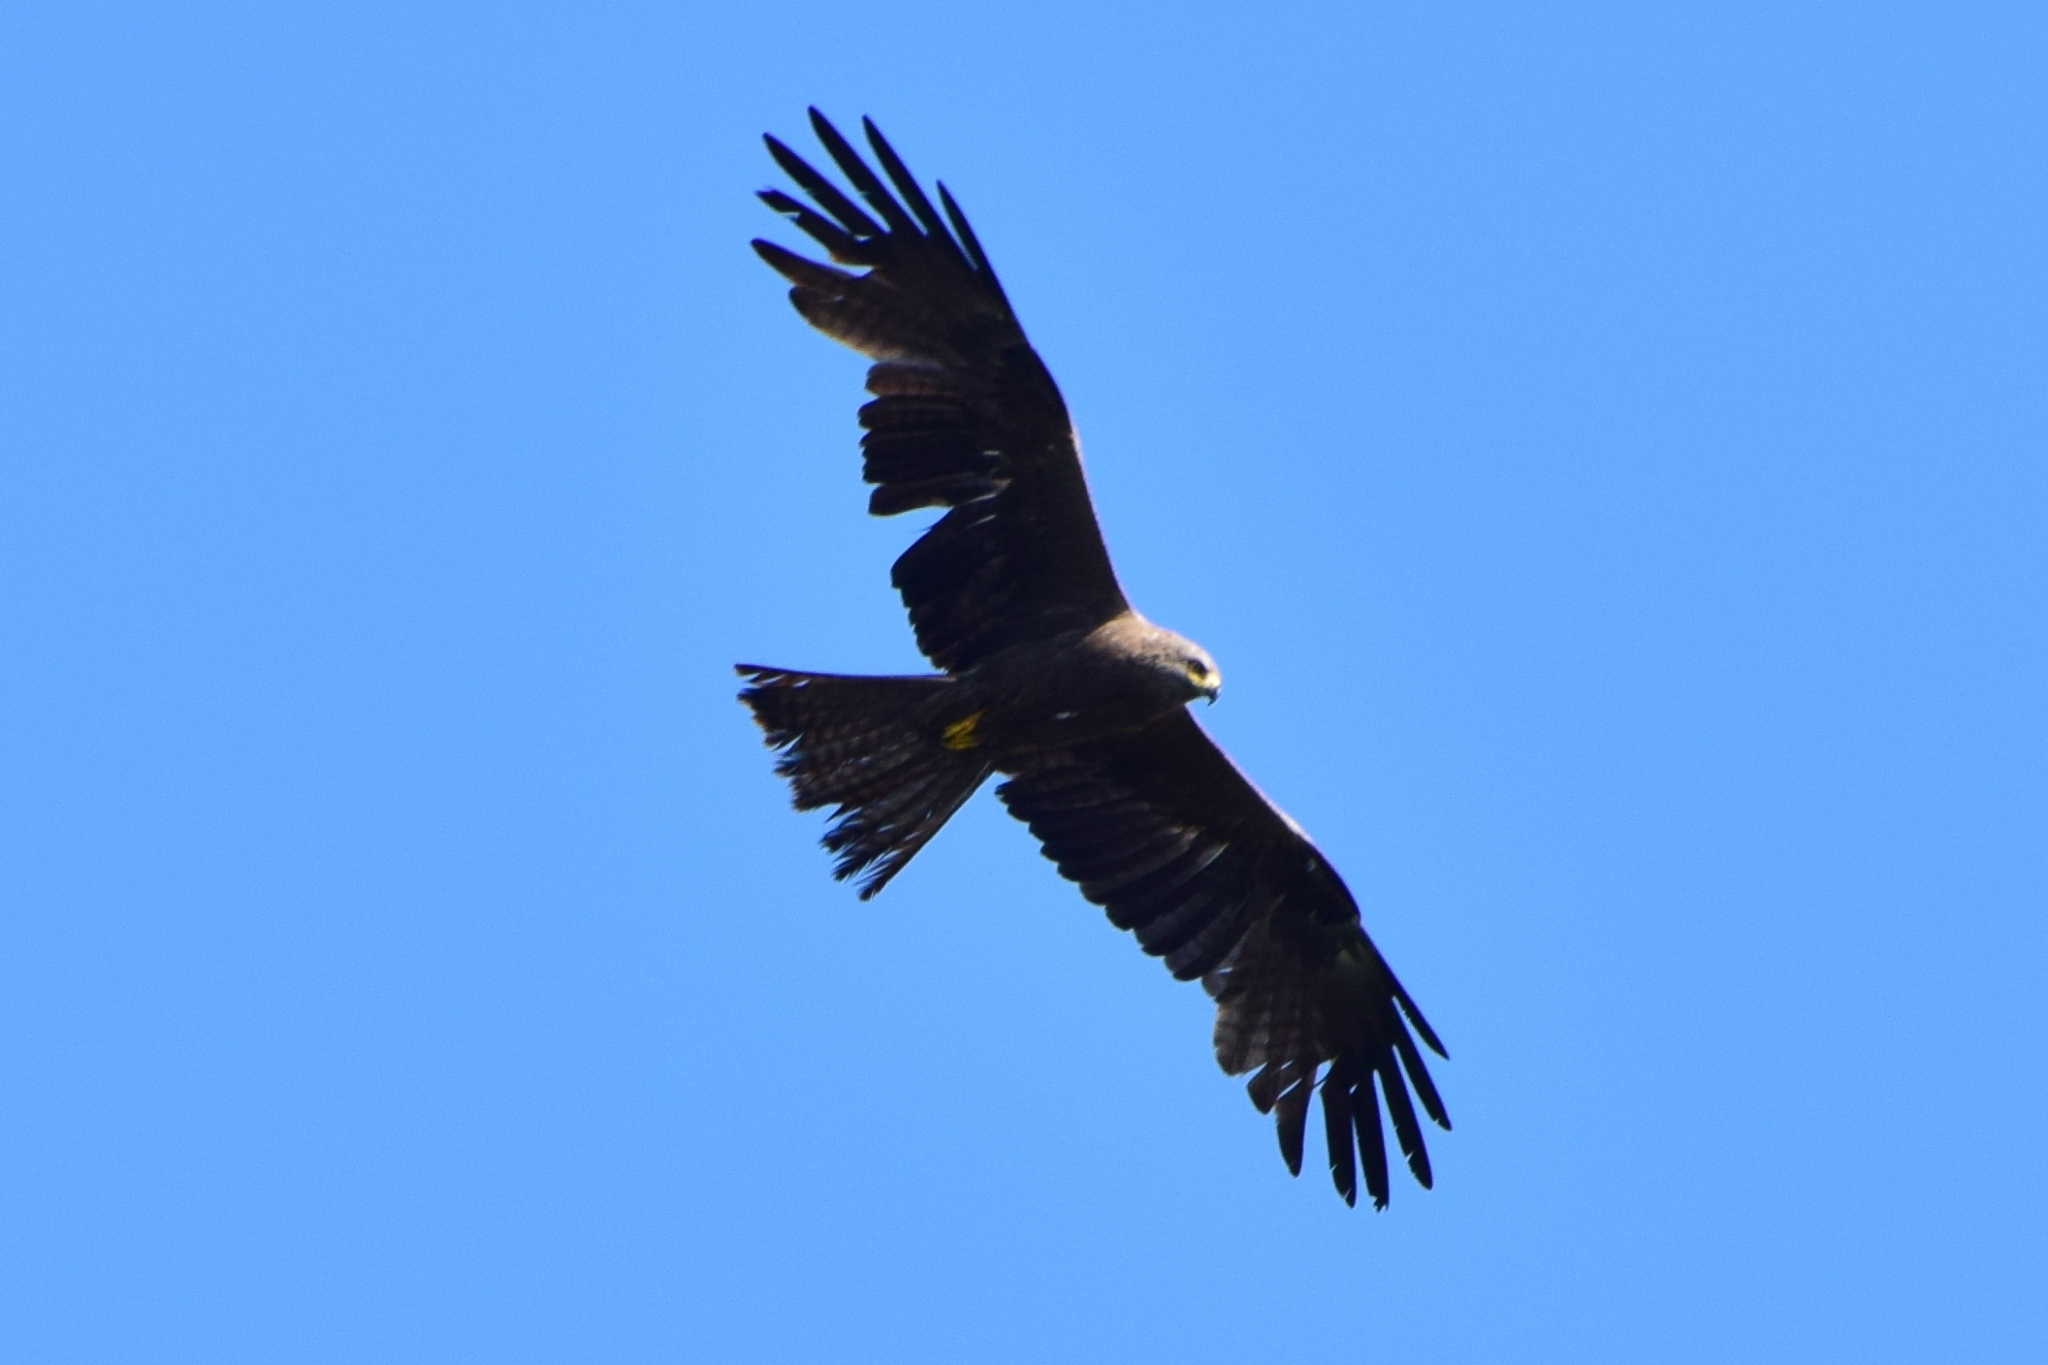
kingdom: Animalia
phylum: Chordata
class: Aves
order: Accipitriformes
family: Accipitridae
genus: Milvus
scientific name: Milvus migrans
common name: Black kite
